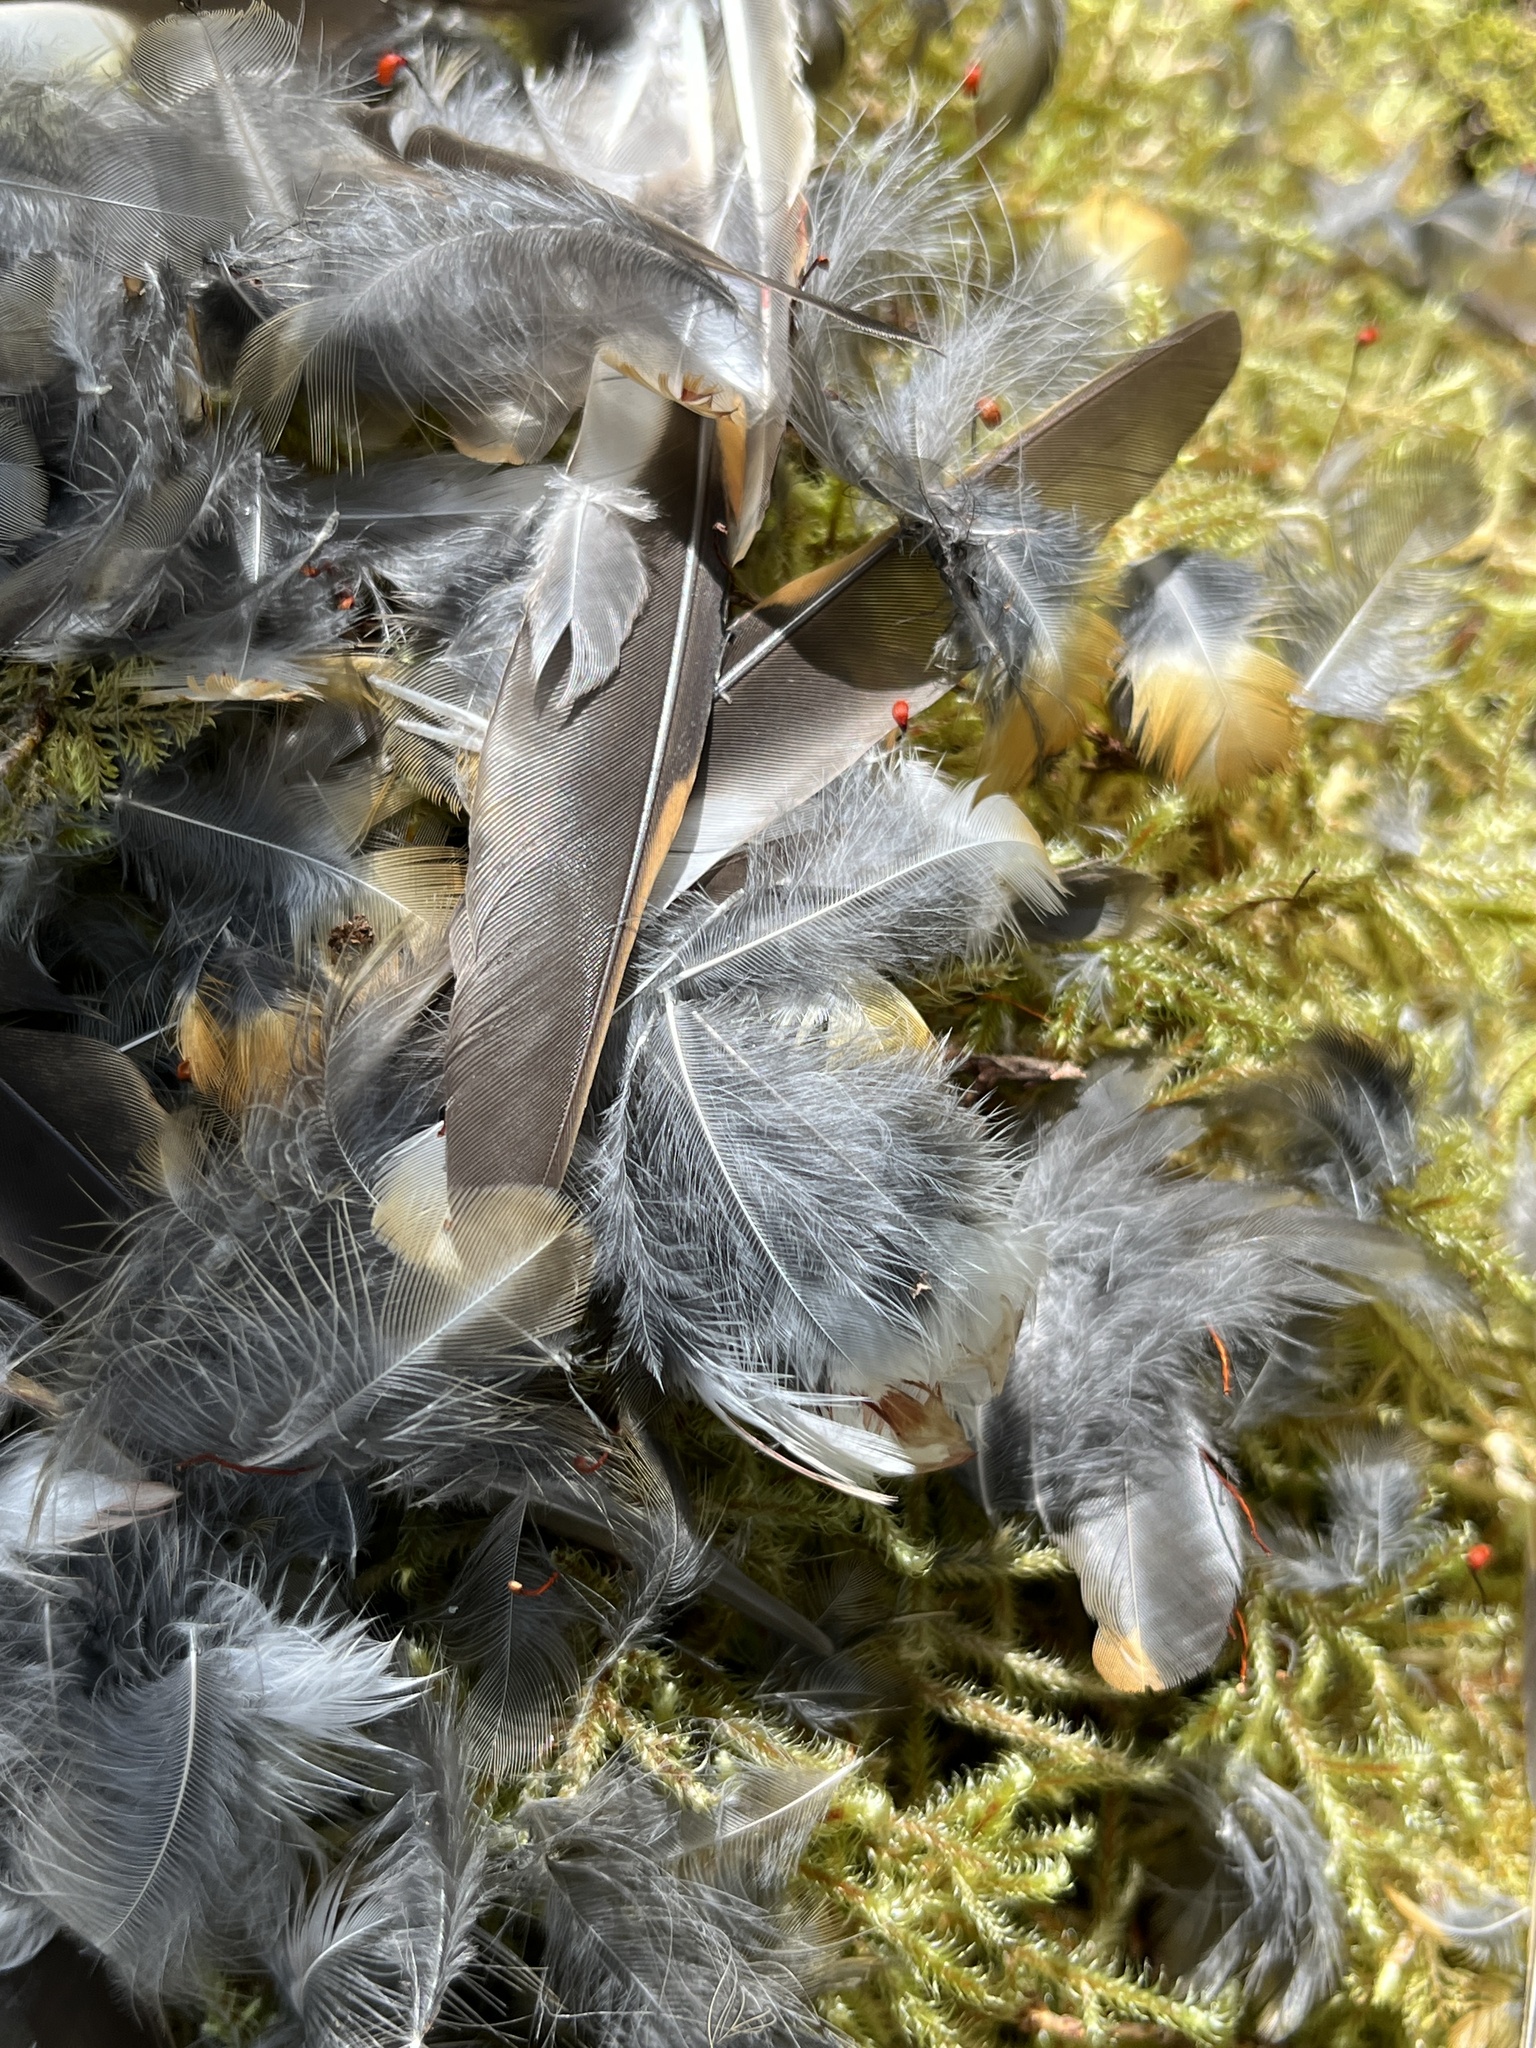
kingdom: Animalia
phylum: Chordata
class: Aves
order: Passeriformes
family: Turdidae
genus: Ixoreus
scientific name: Ixoreus naevius
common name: Varied thrush
